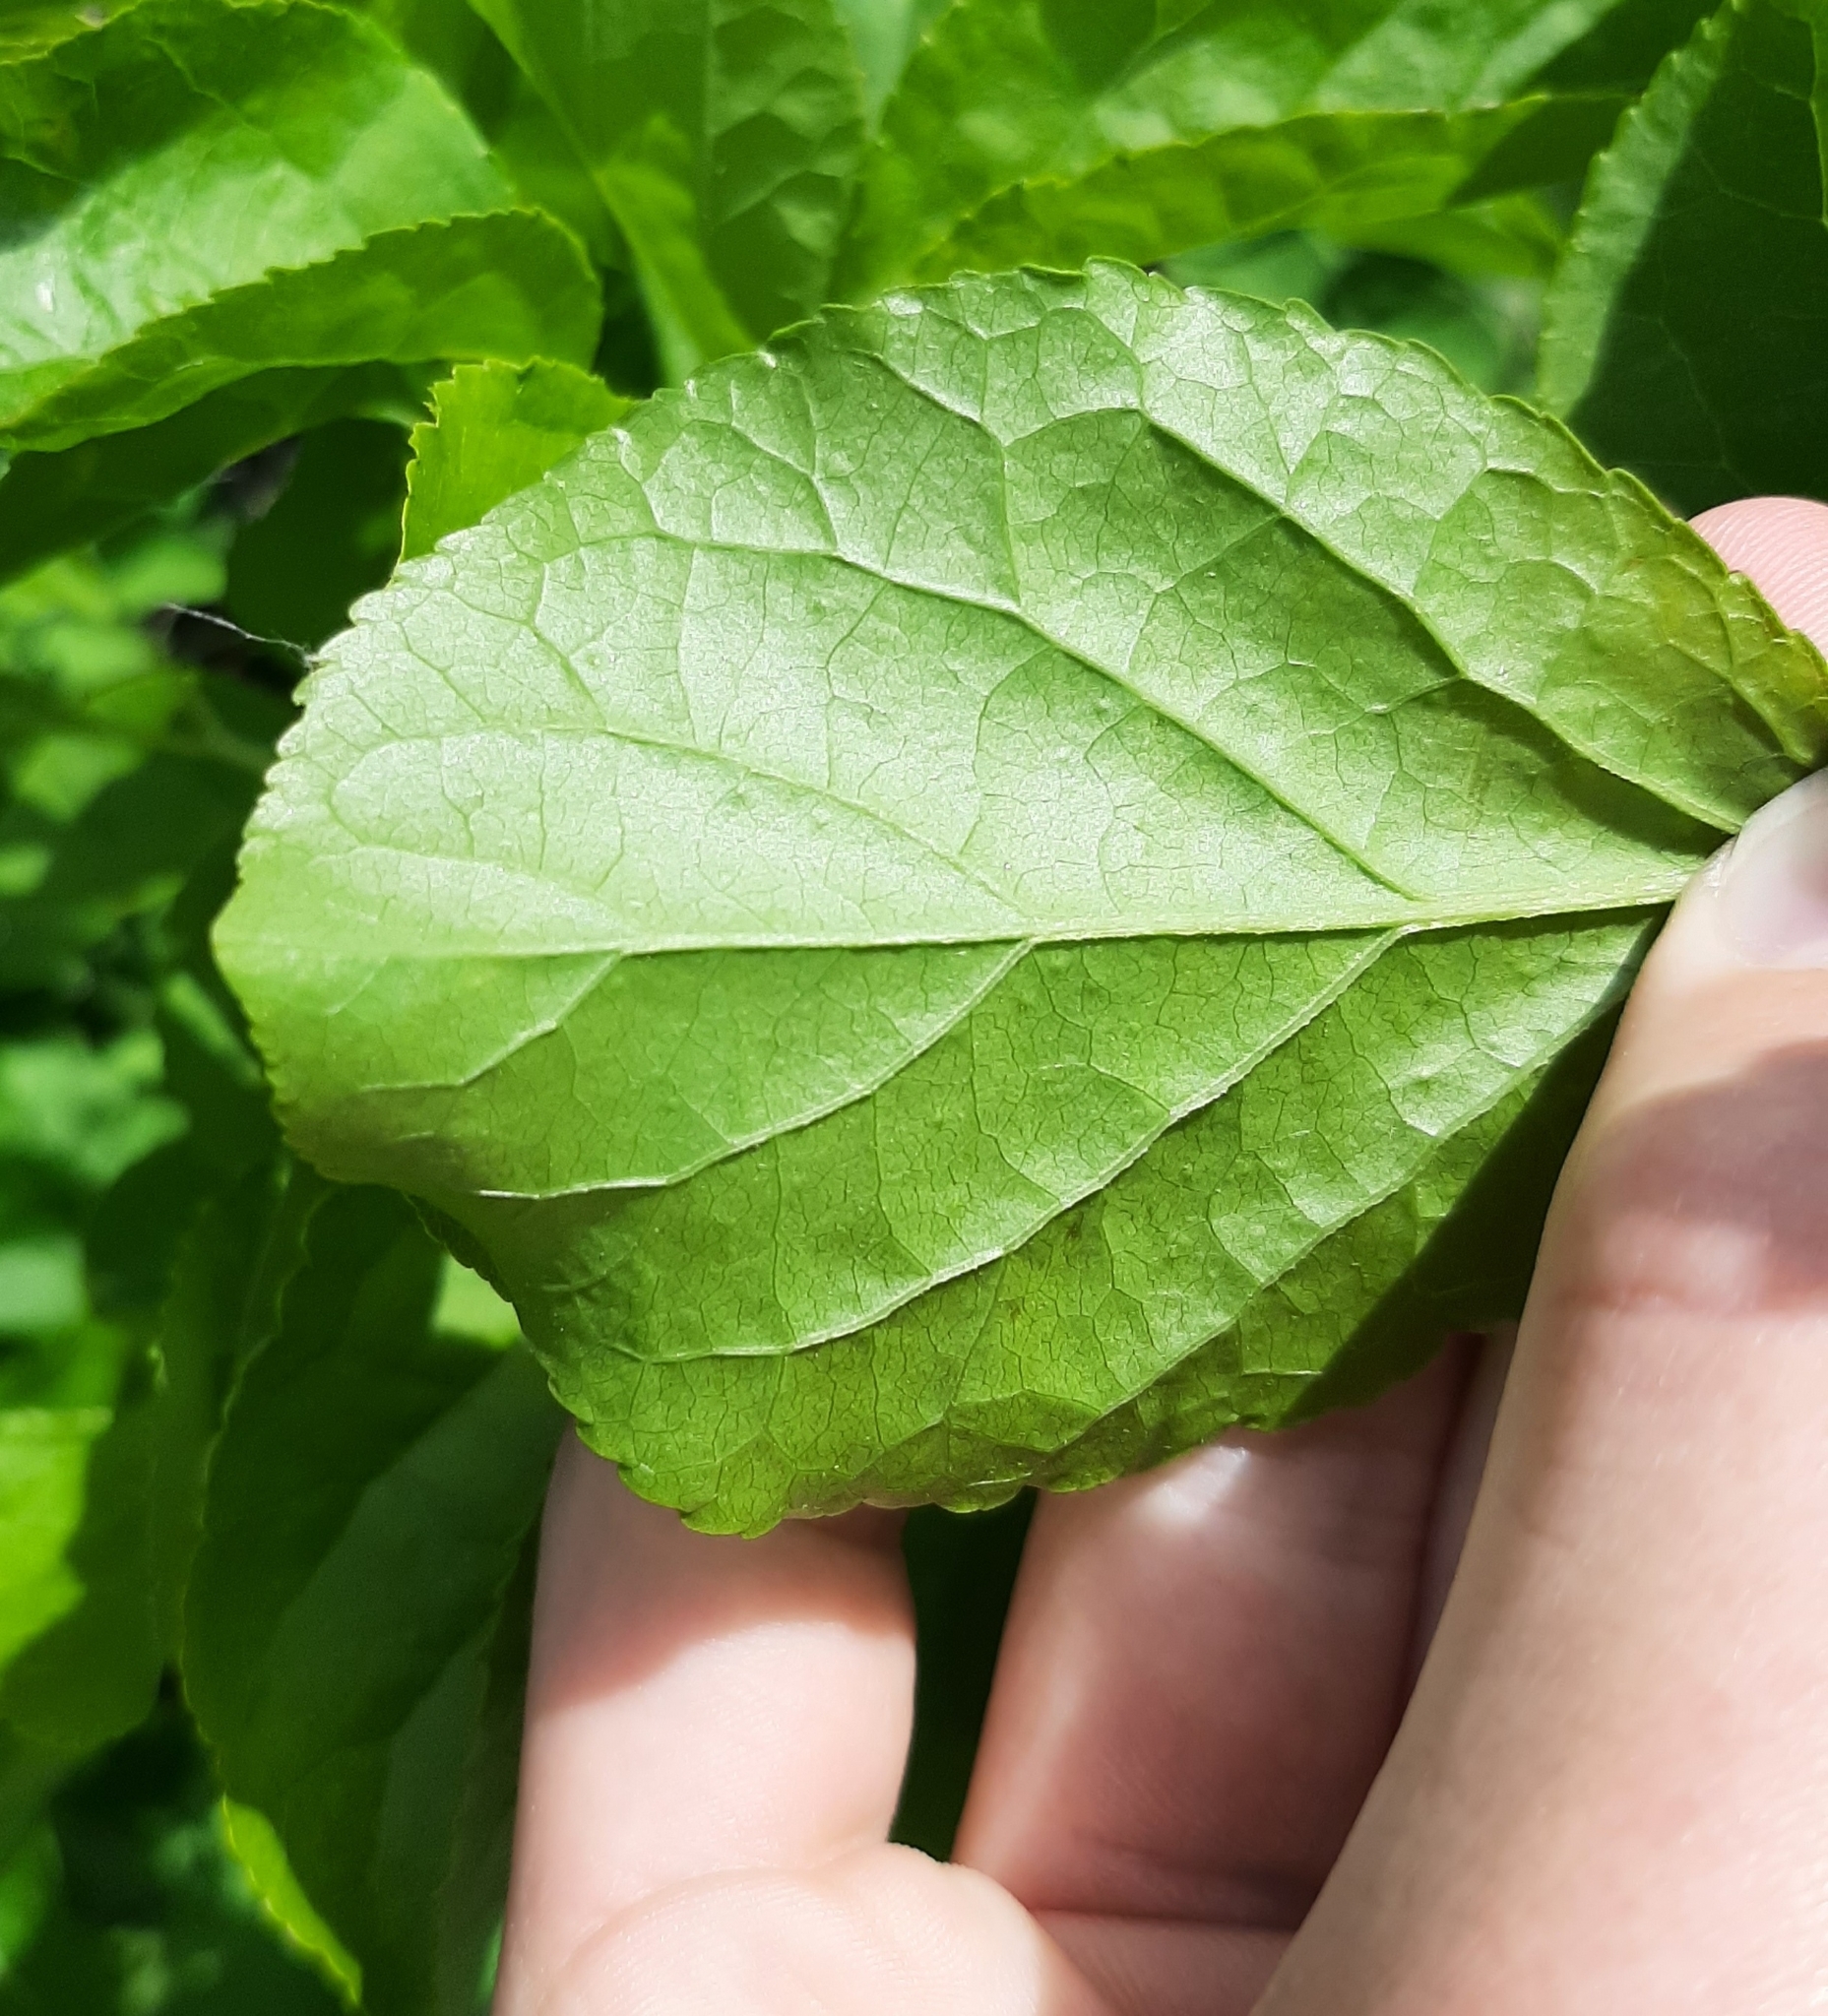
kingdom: Plantae
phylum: Tracheophyta
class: Magnoliopsida
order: Celastrales
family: Celastraceae
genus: Celastrus
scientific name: Celastrus orbiculatus
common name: Oriental bittersweet
